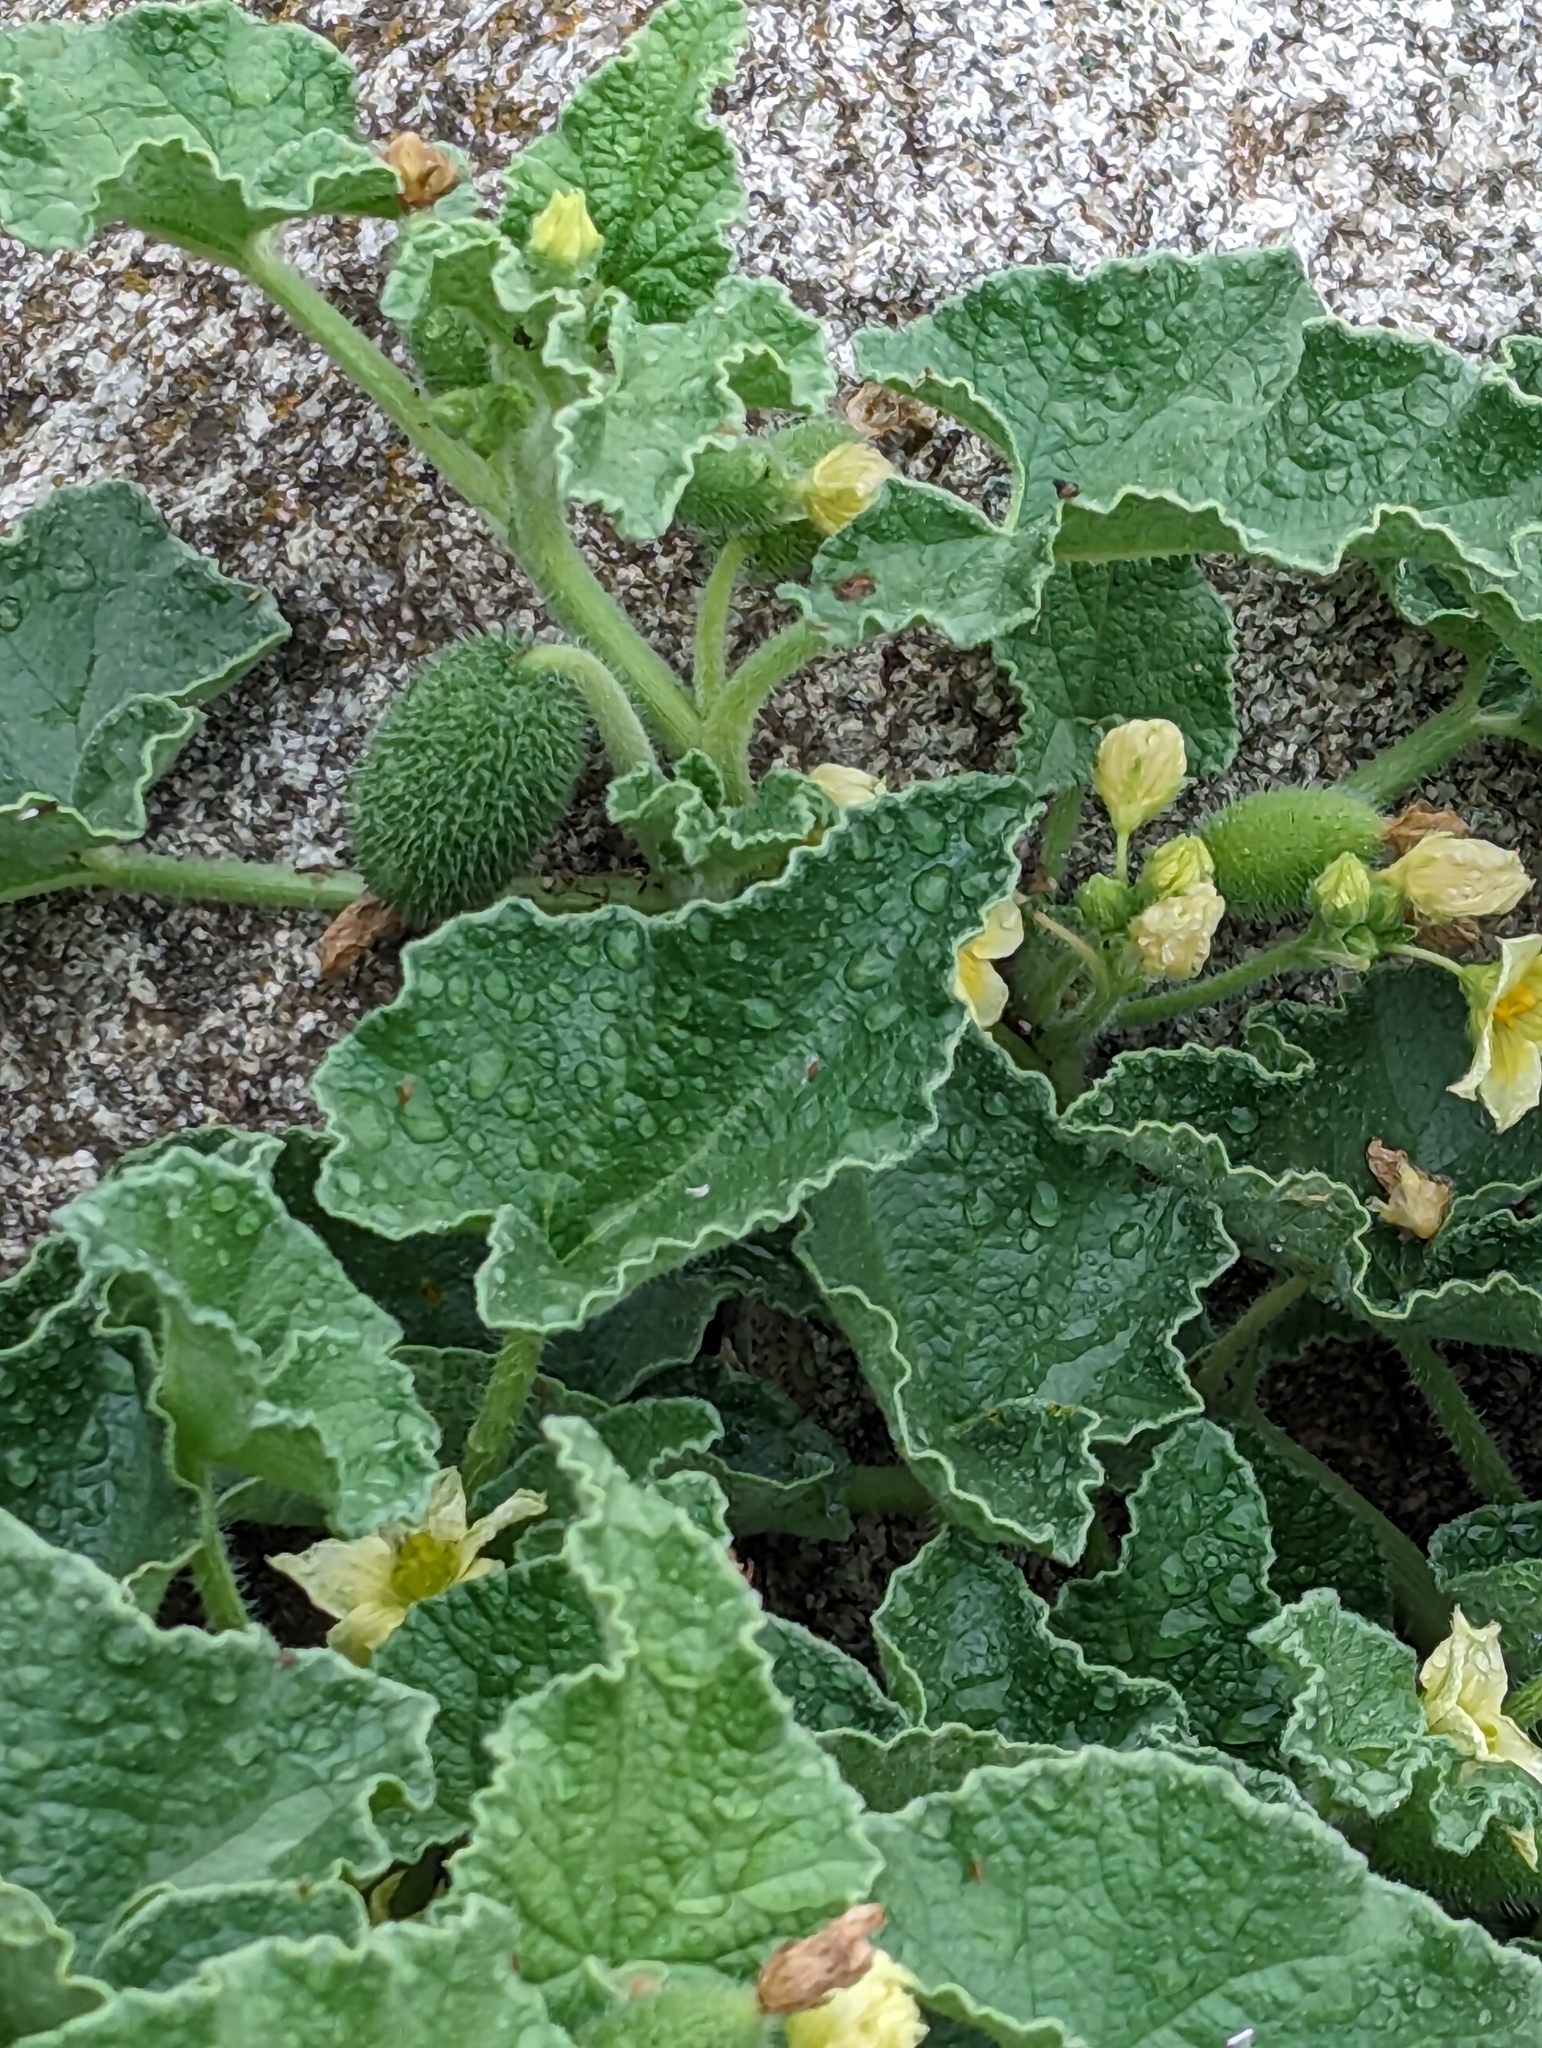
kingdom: Plantae
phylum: Tracheophyta
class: Magnoliopsida
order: Cucurbitales
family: Cucurbitaceae
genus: Ecballium
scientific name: Ecballium elaterium
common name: Squirting cucumber
